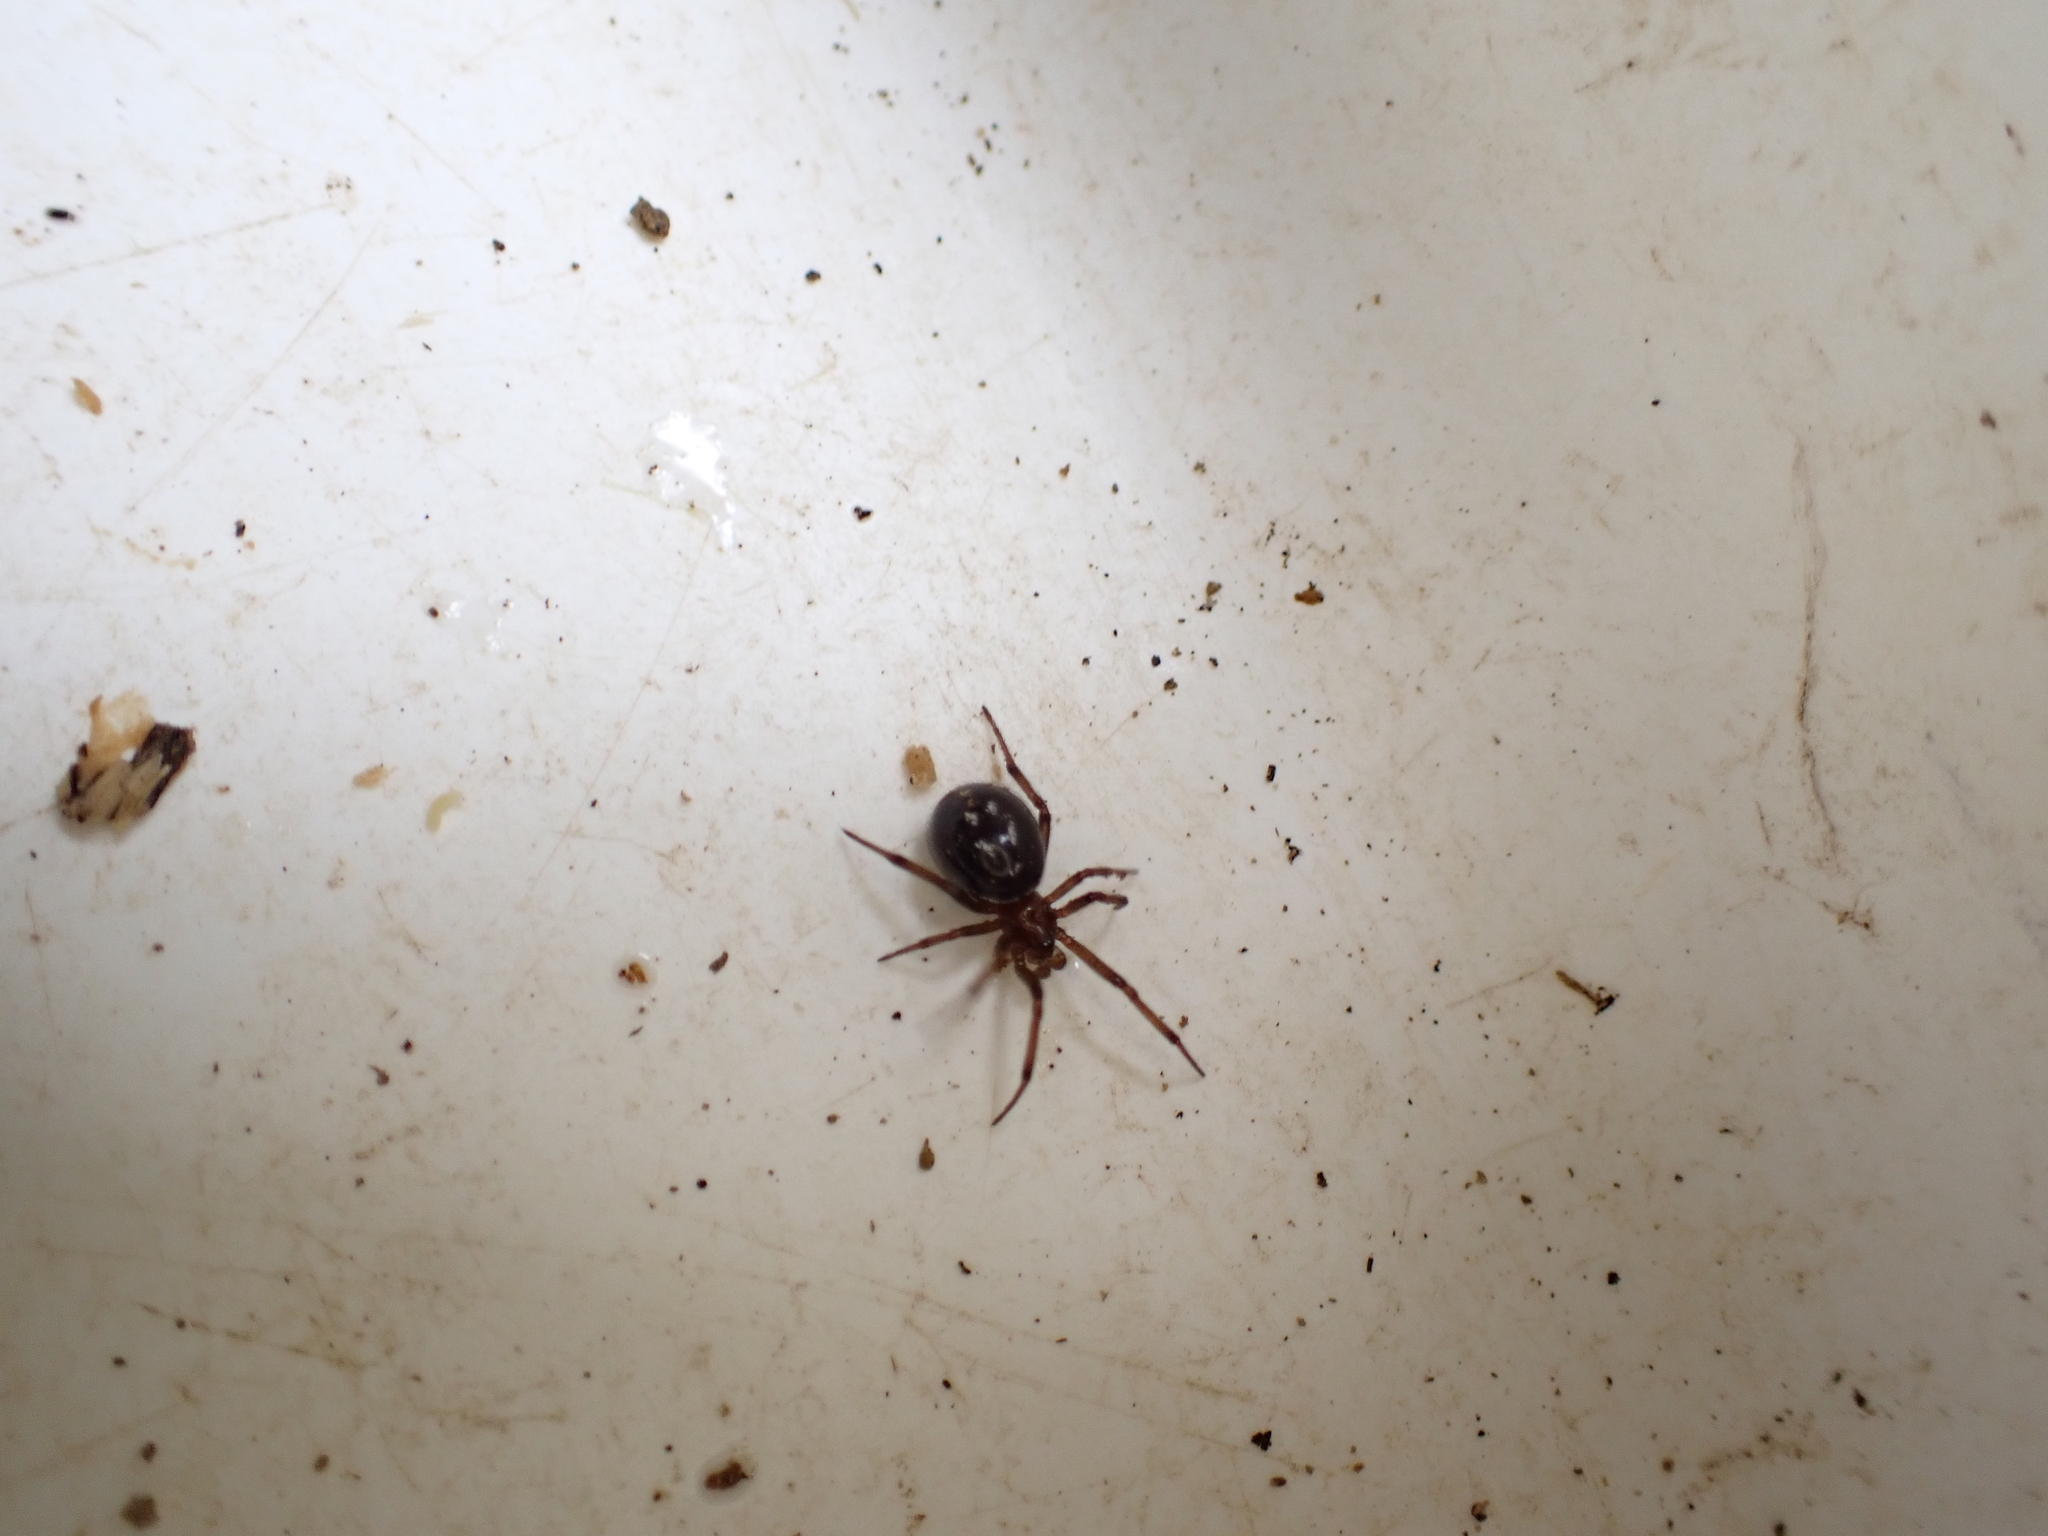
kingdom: Animalia
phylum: Arthropoda
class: Arachnida
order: Araneae
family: Theridiidae
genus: Steatoda
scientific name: Steatoda capensis
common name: Cobweb weaver
